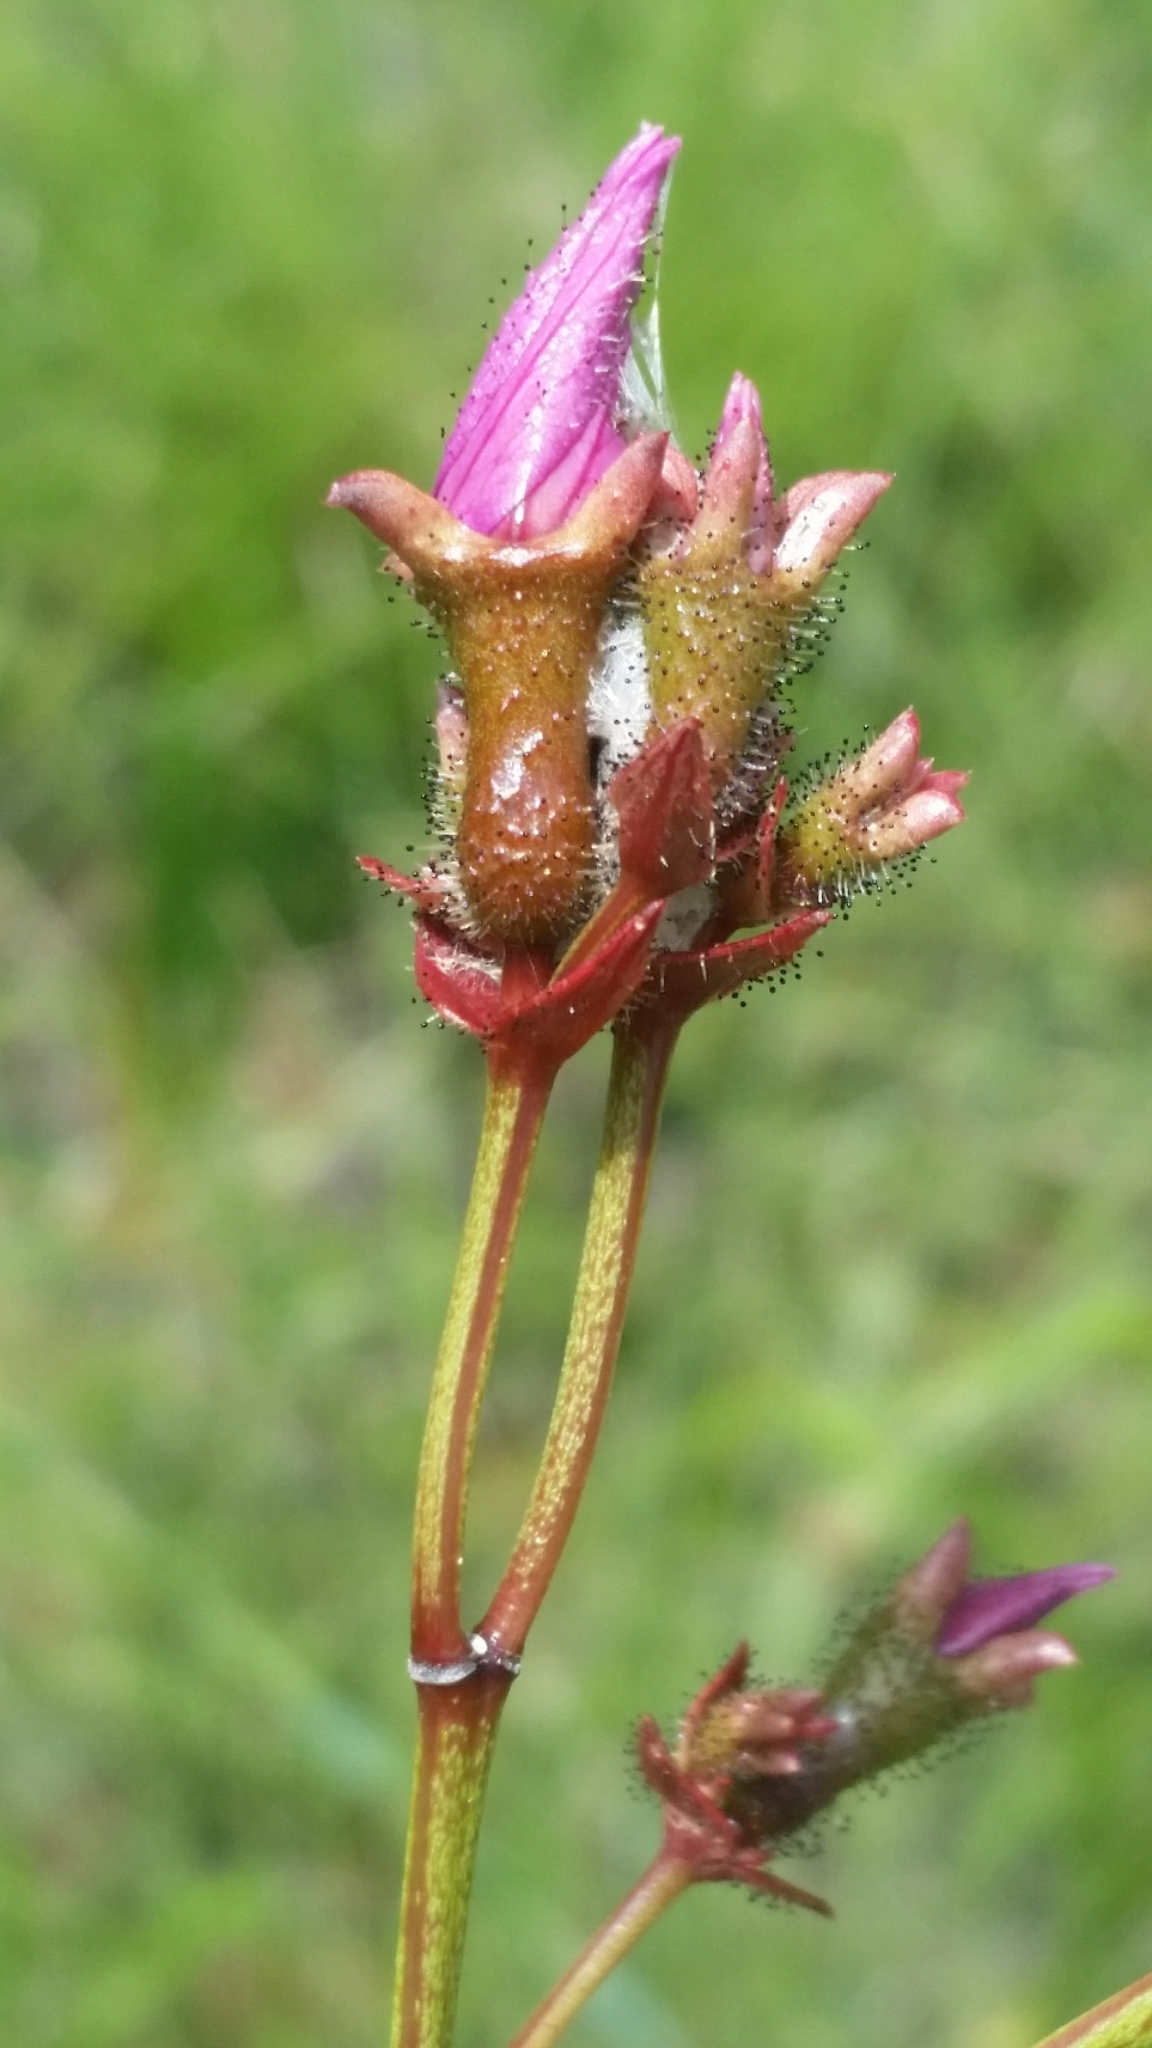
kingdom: Plantae
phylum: Tracheophyta
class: Magnoliopsida
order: Myrtales
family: Melastomataceae
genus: Rhexia
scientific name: Rhexia alifanus
